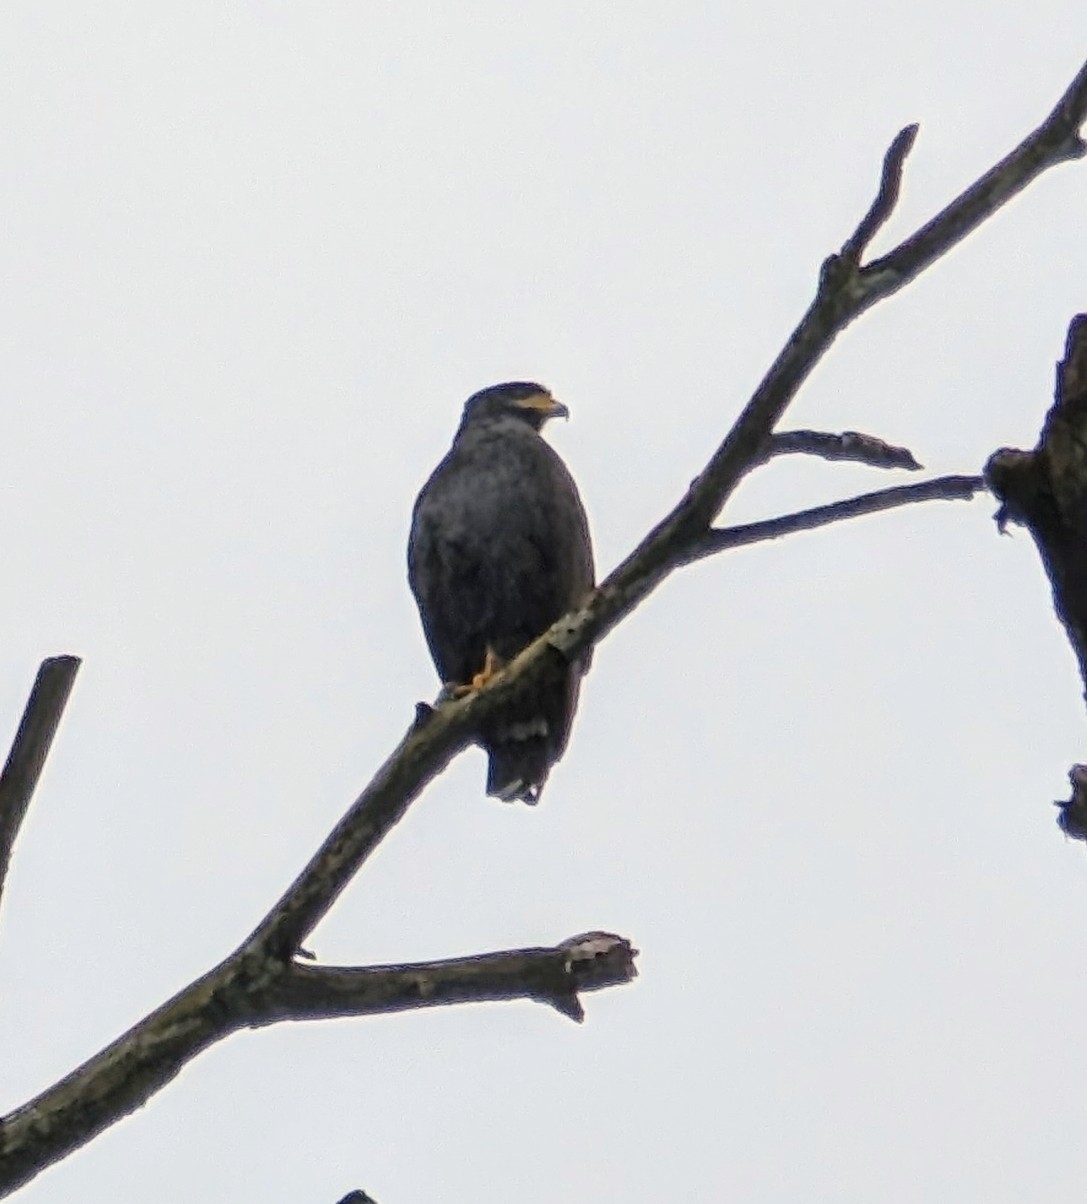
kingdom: Animalia
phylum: Chordata
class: Aves
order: Accipitriformes
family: Accipitridae
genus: Buteogallus
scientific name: Buteogallus anthracinus
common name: Common black hawk
